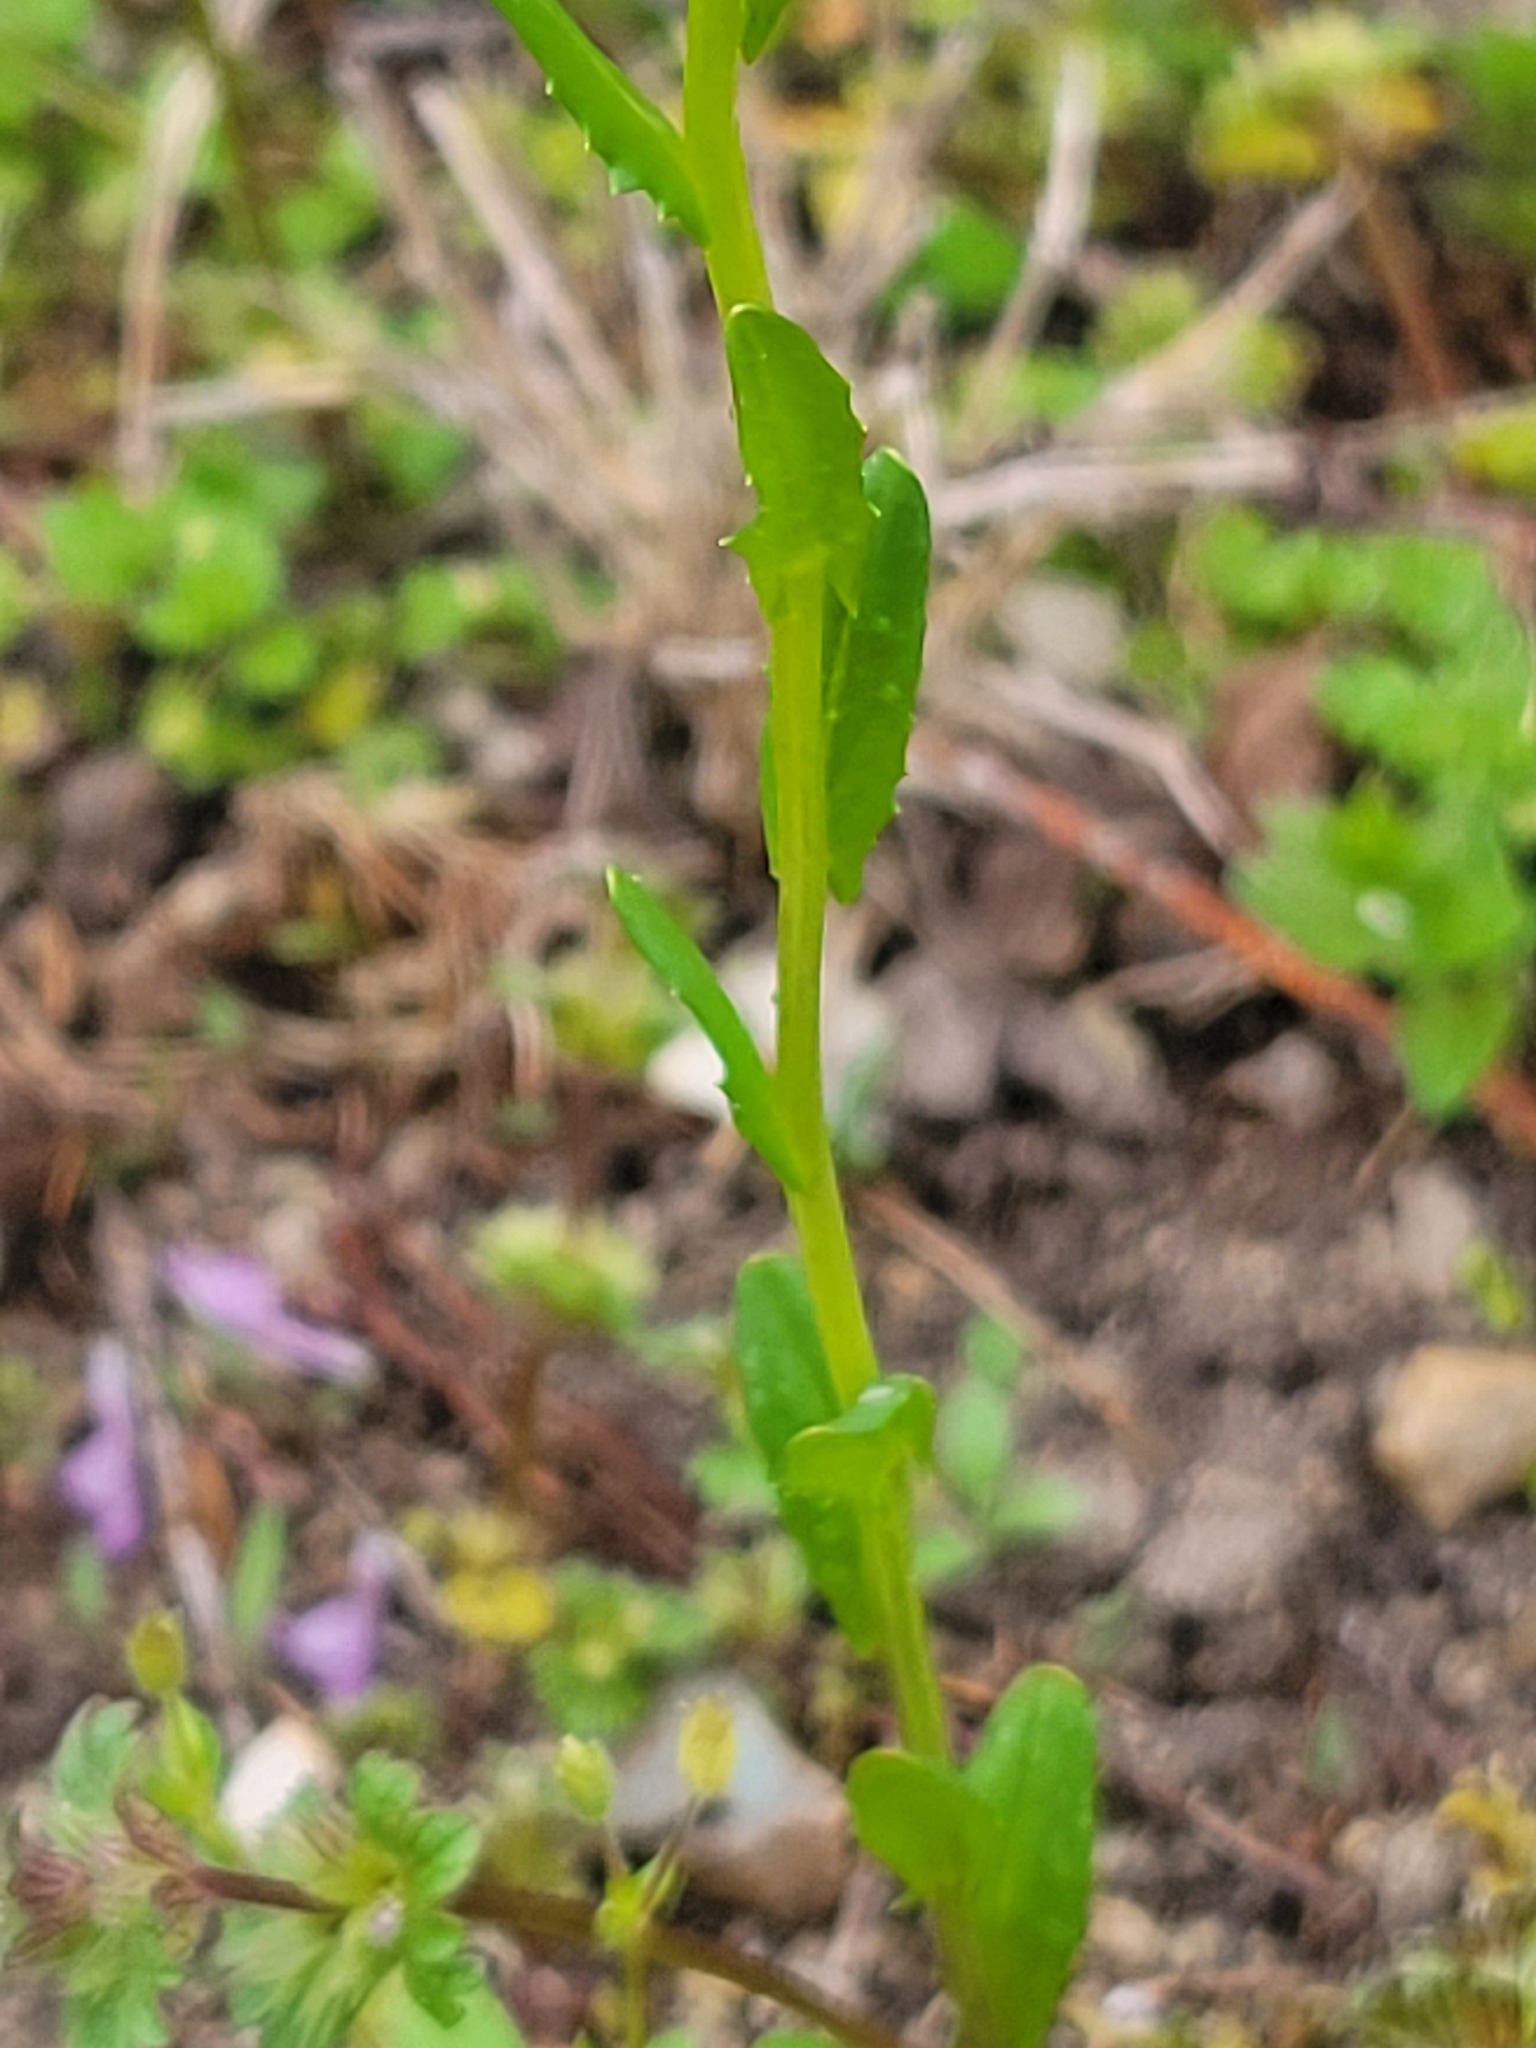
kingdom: Plantae
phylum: Tracheophyta
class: Magnoliopsida
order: Brassicales
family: Brassicaceae
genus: Thlaspi
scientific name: Thlaspi arvense
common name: Field pennycress
